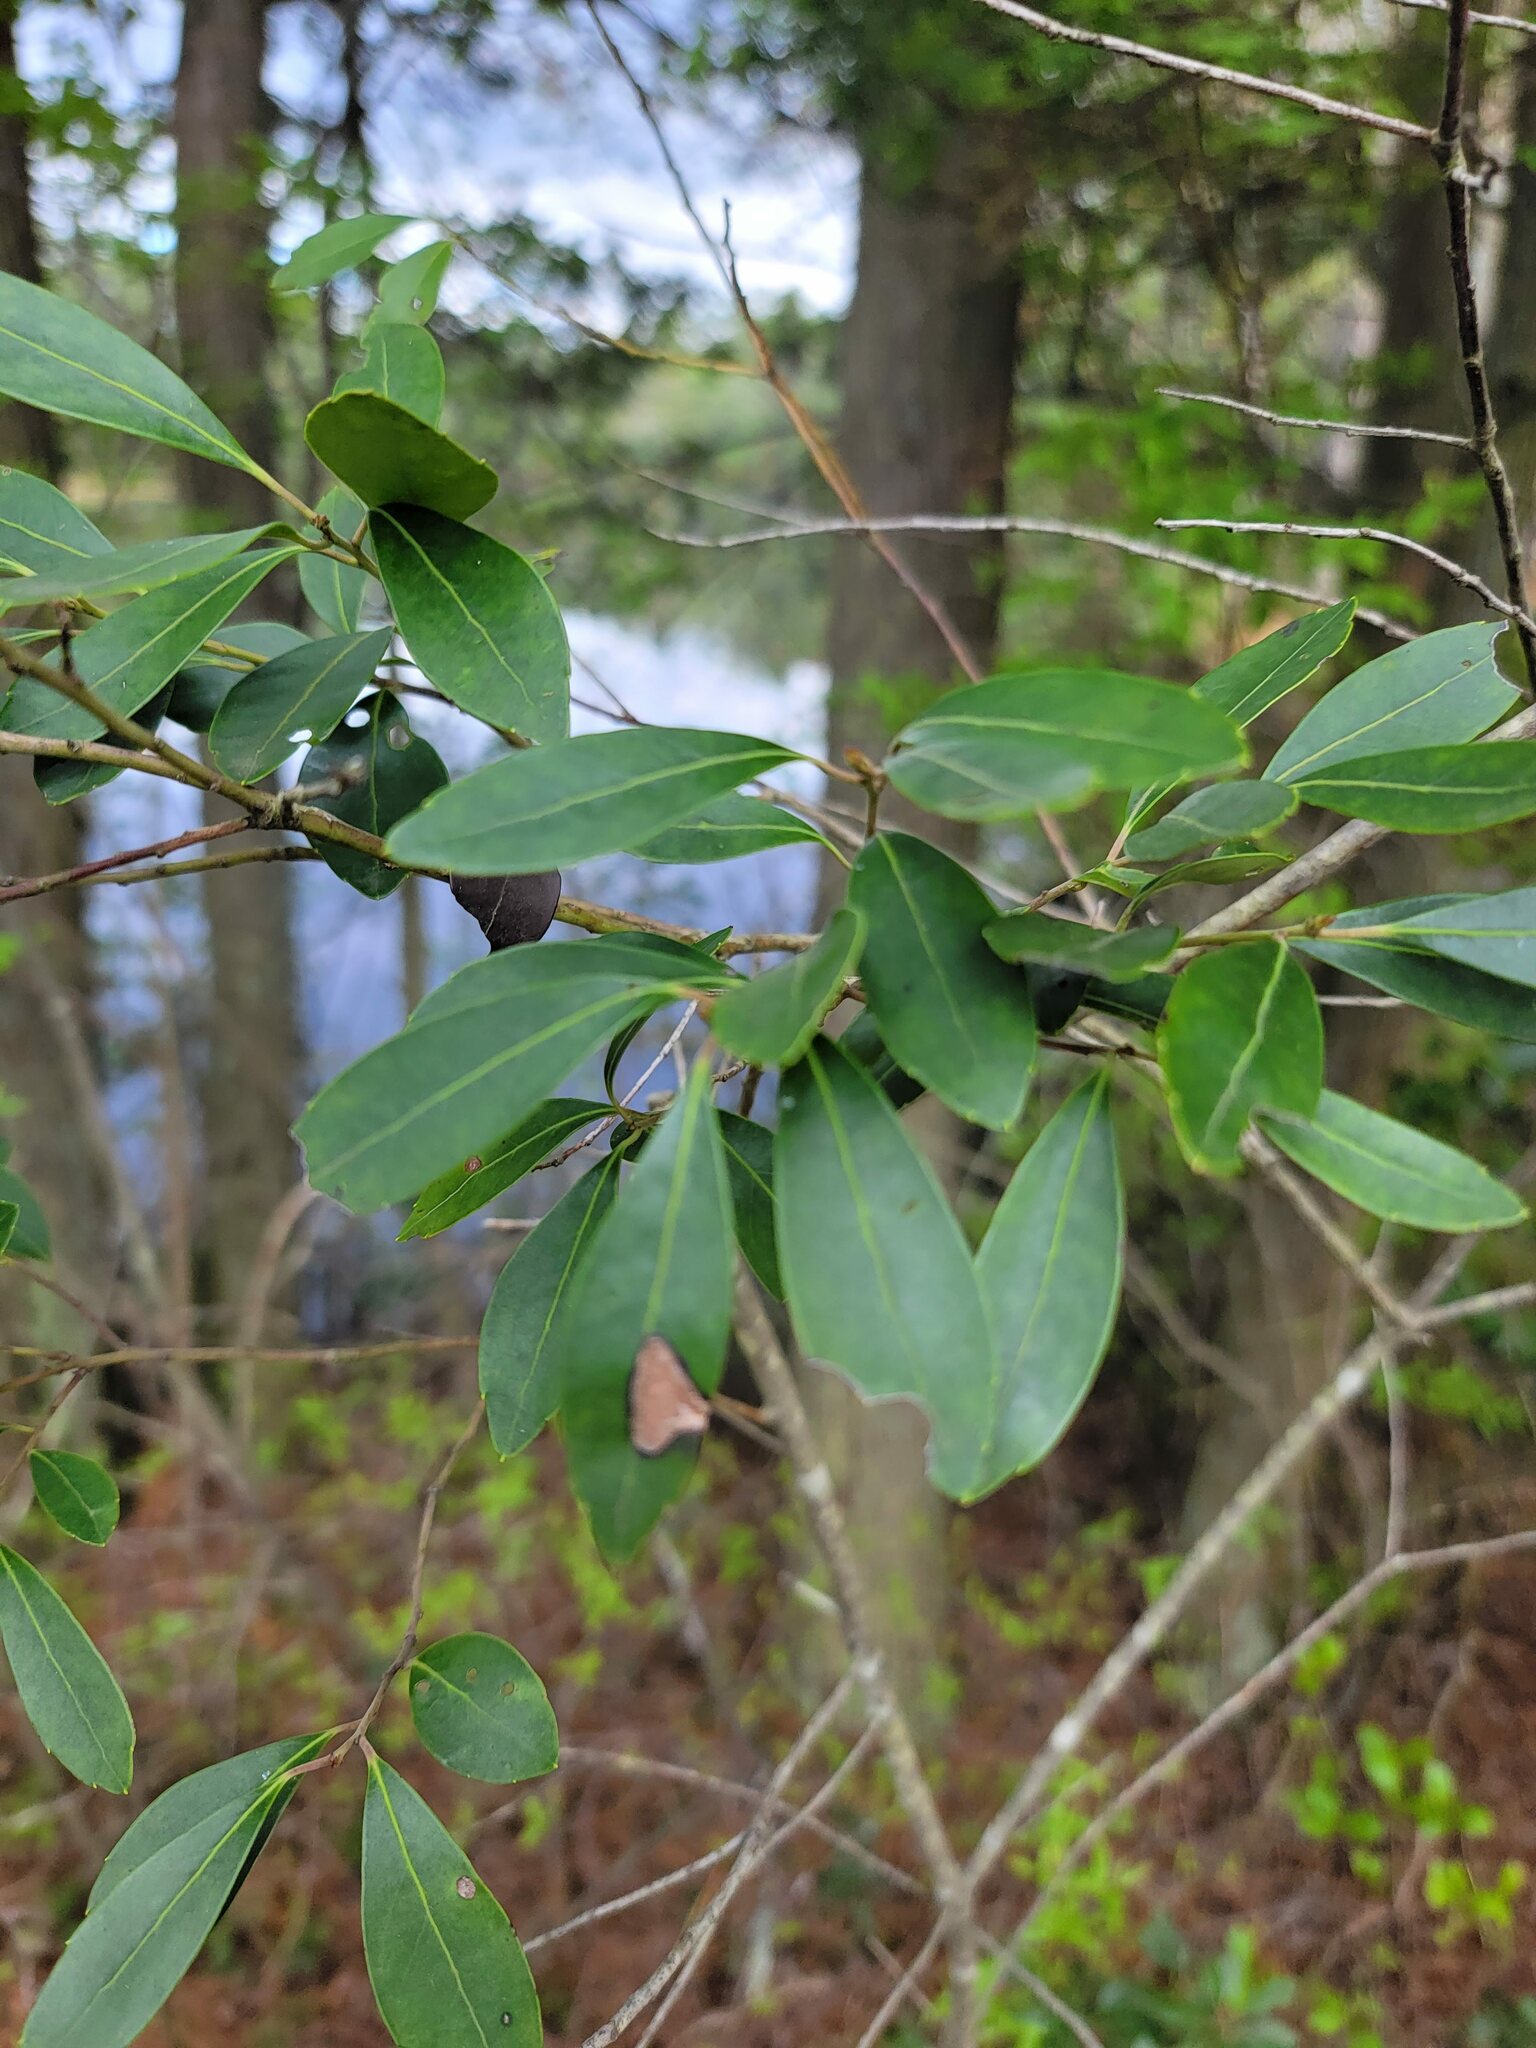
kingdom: Plantae
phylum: Tracheophyta
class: Magnoliopsida
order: Aquifoliales
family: Aquifoliaceae
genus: Ilex
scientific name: Ilex glabra
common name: Bitter gallberry
